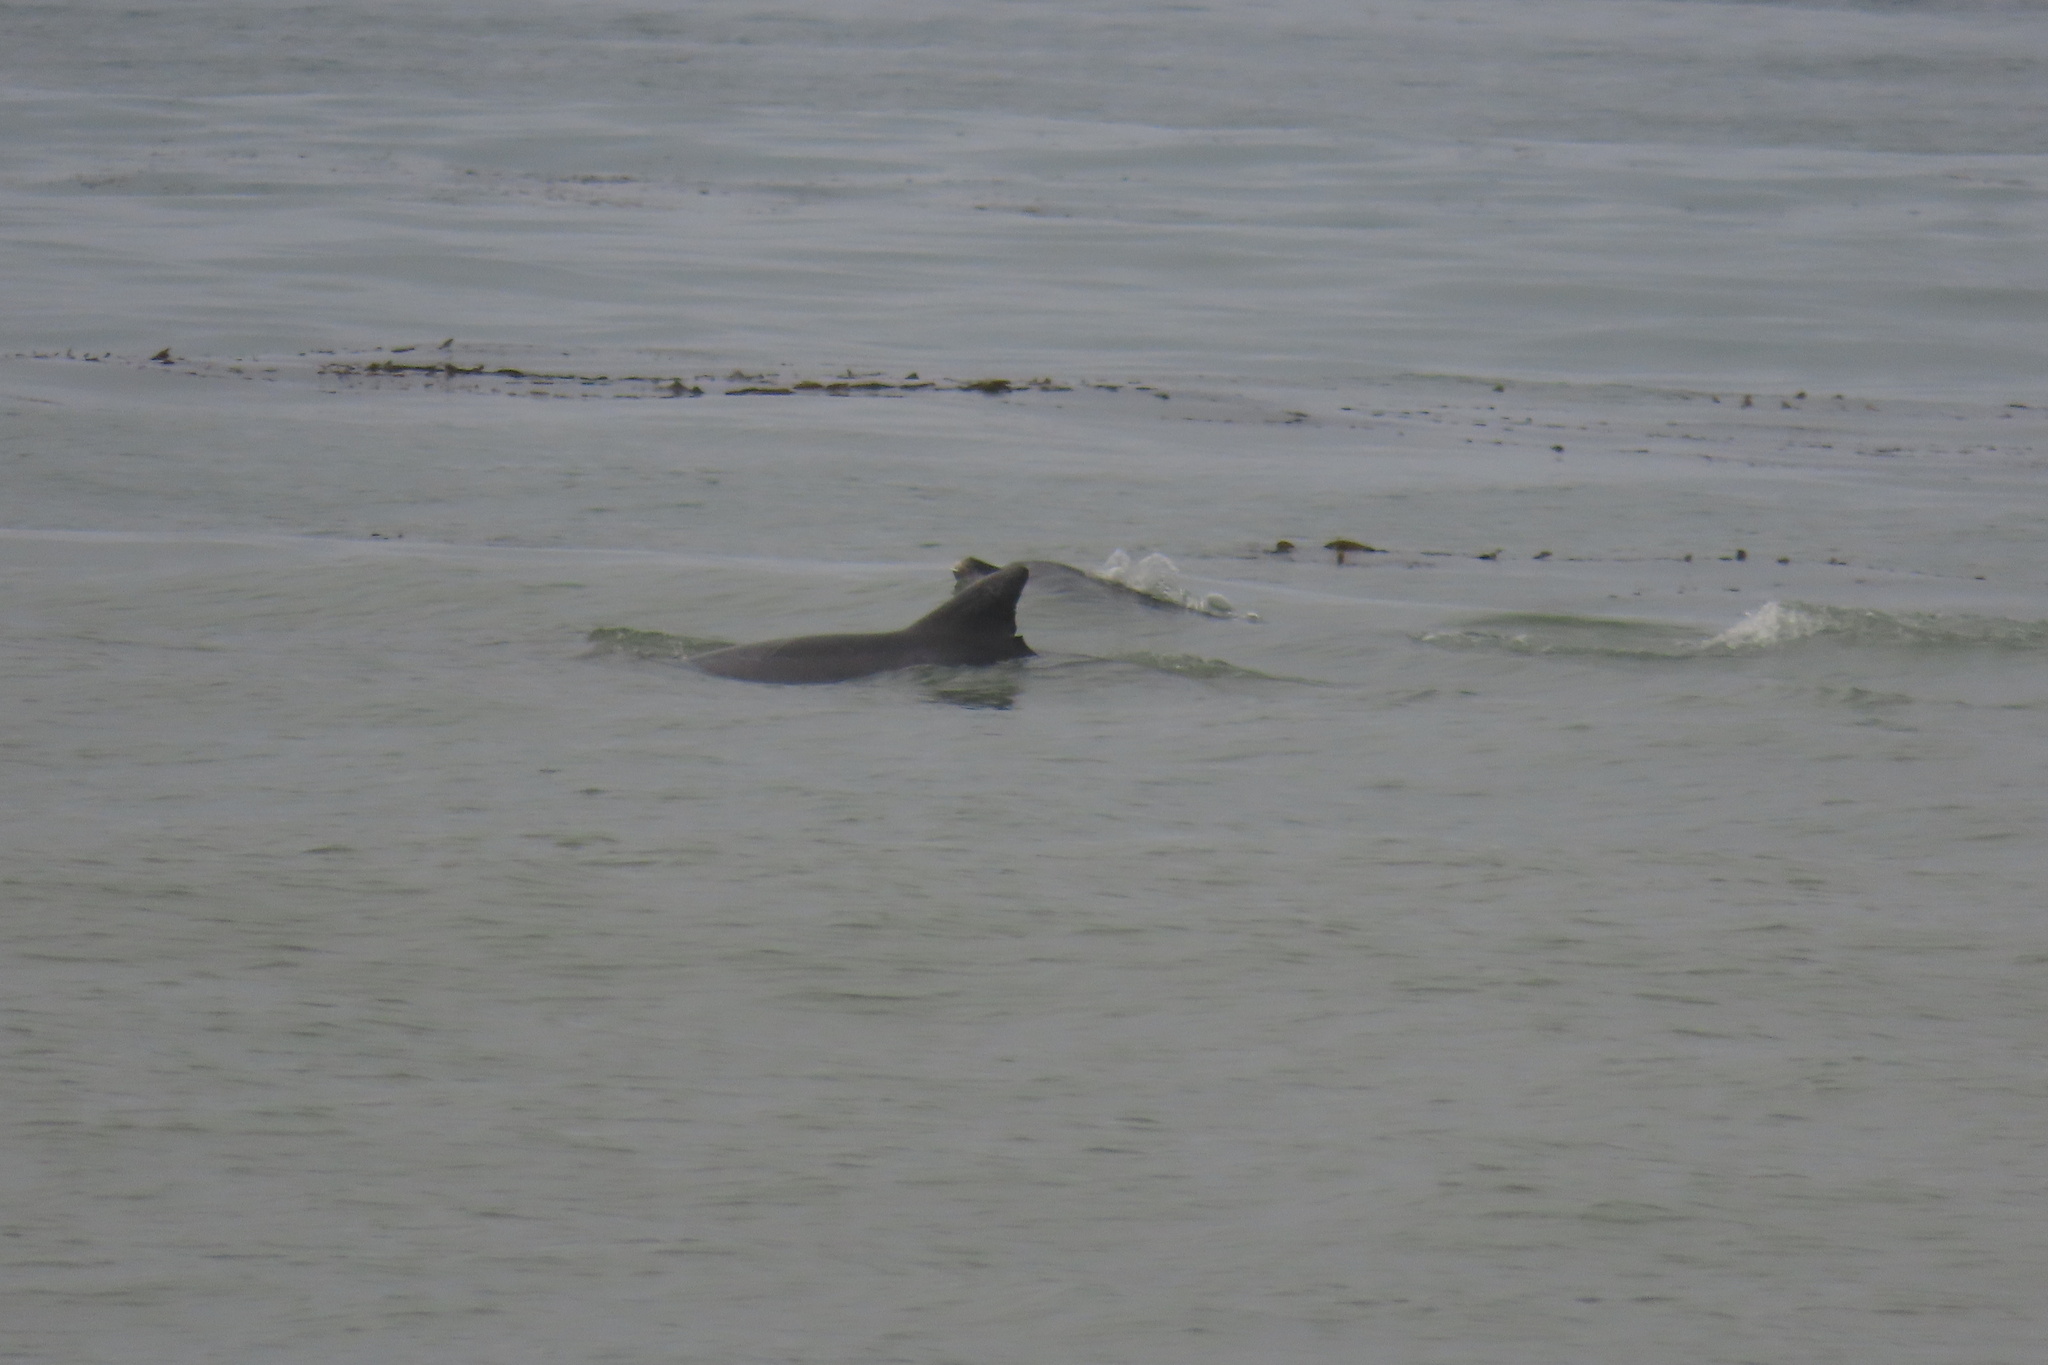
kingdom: Animalia
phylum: Chordata
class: Mammalia
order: Cetacea
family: Delphinidae
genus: Tursiops
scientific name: Tursiops truncatus
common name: Bottlenose dolphin
